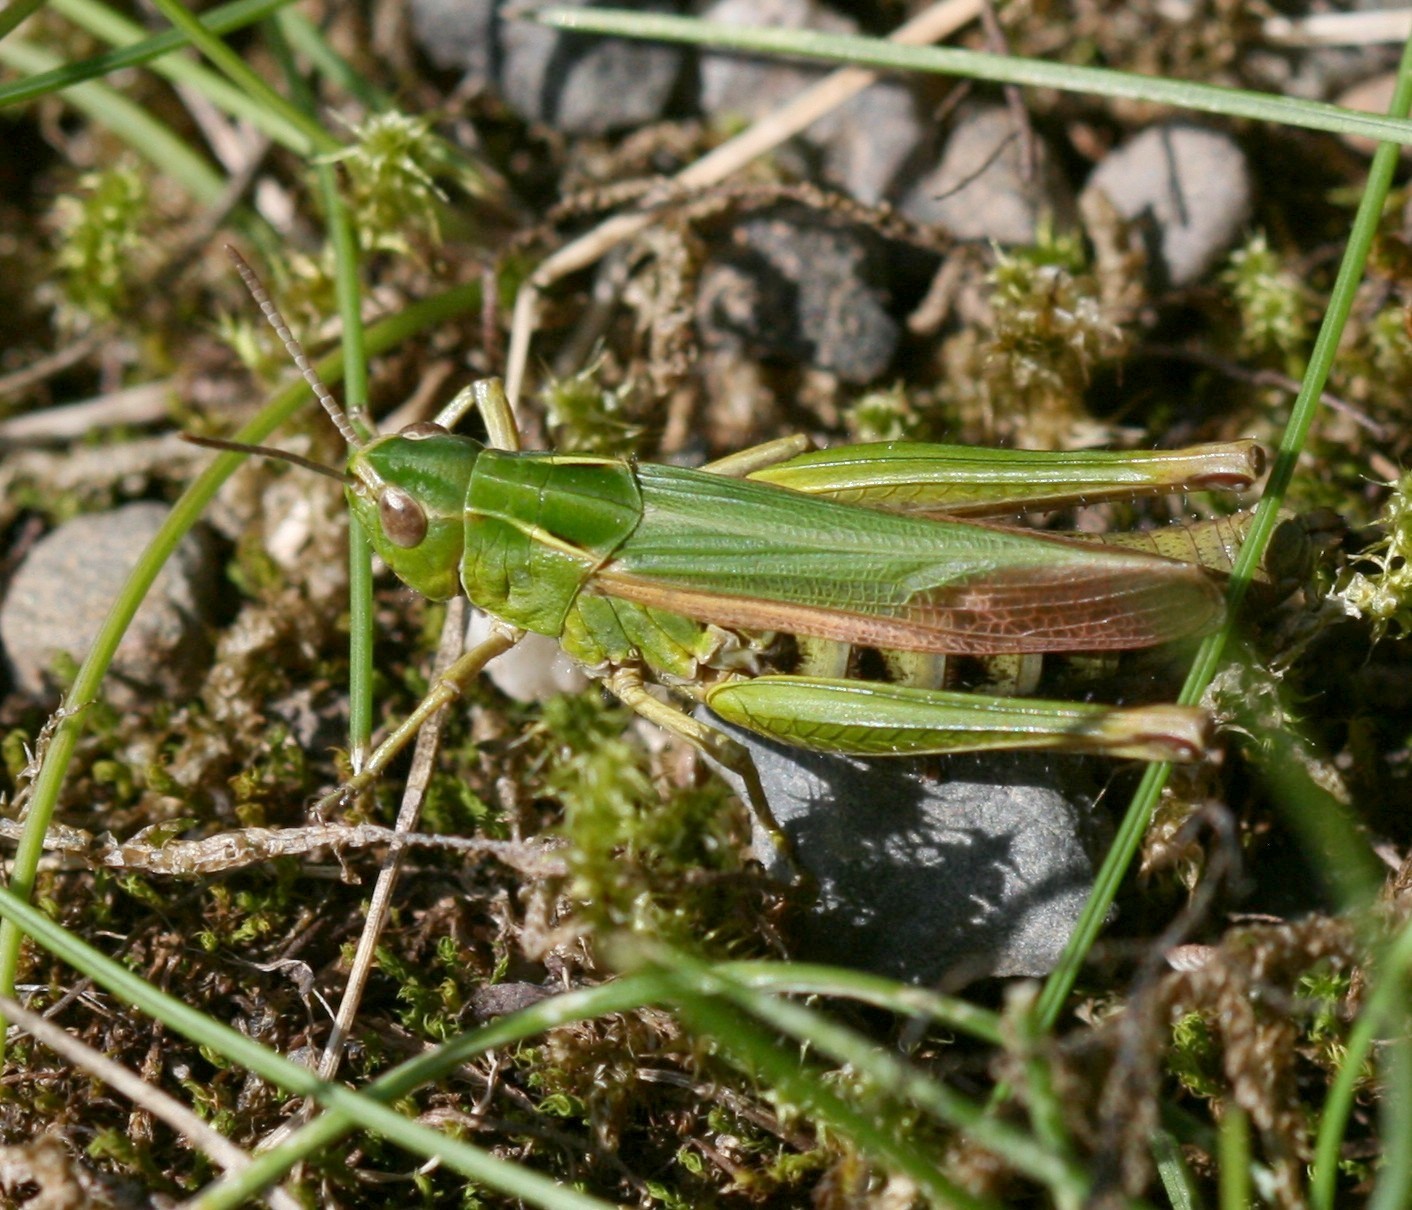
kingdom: Animalia
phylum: Arthropoda
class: Insecta
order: Orthoptera
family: Acrididae
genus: Omocestus
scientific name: Omocestus viridulus
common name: Common green grasshopper
